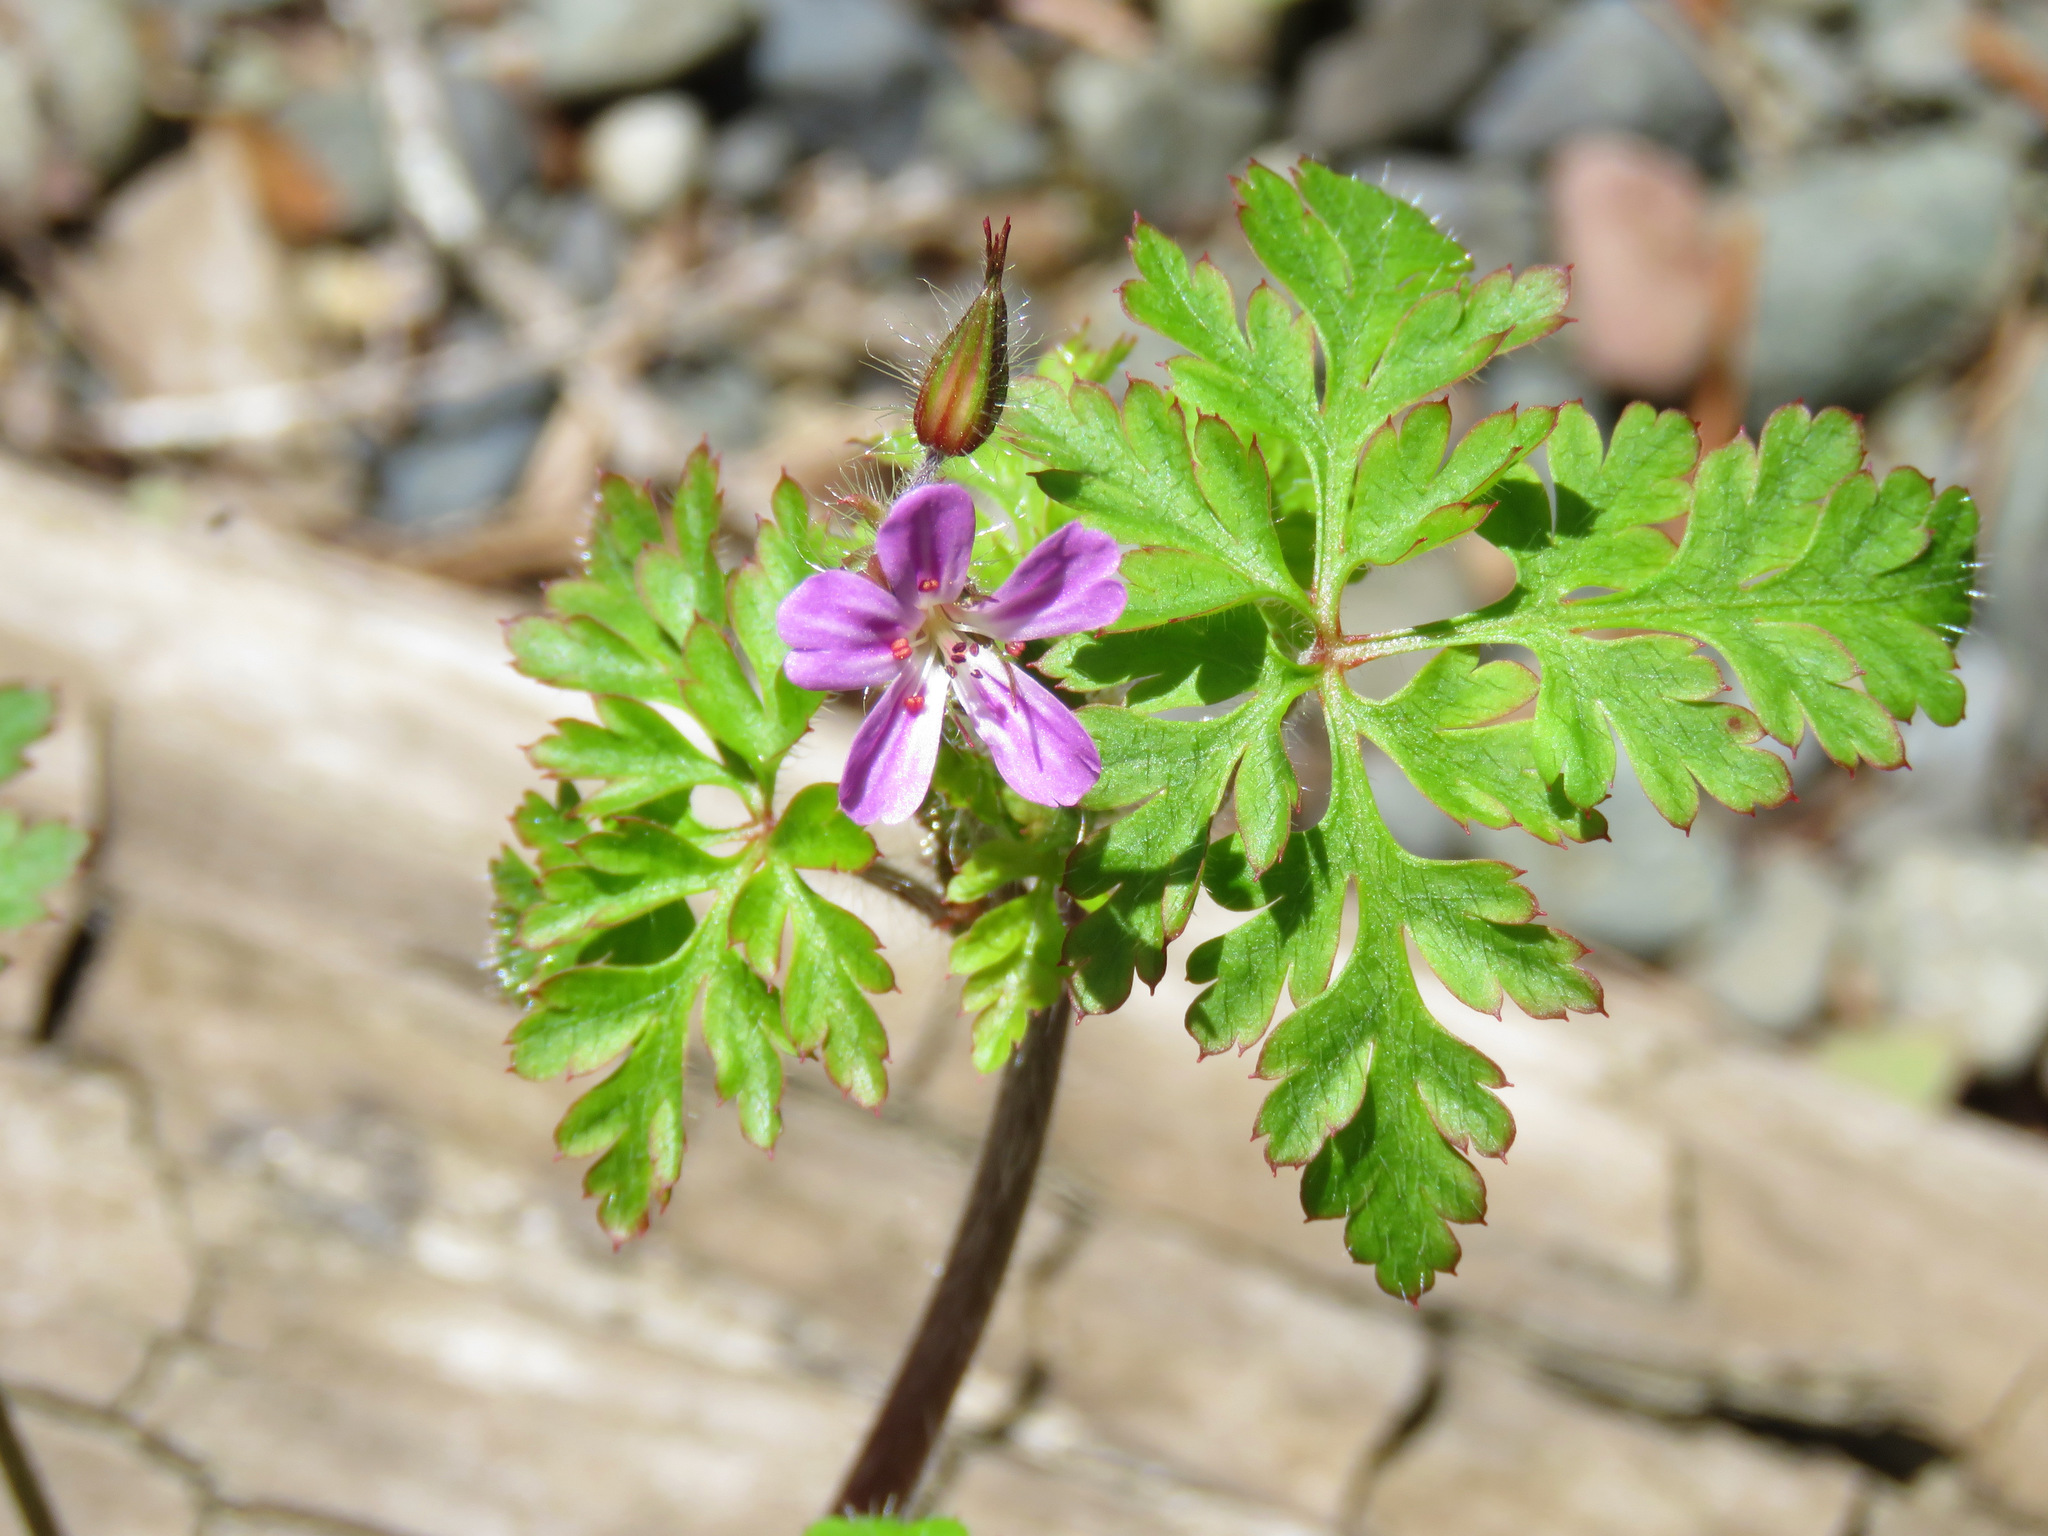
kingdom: Plantae
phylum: Tracheophyta
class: Magnoliopsida
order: Geraniales
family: Geraniaceae
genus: Geranium
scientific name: Geranium robertianum
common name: Herb-robert
